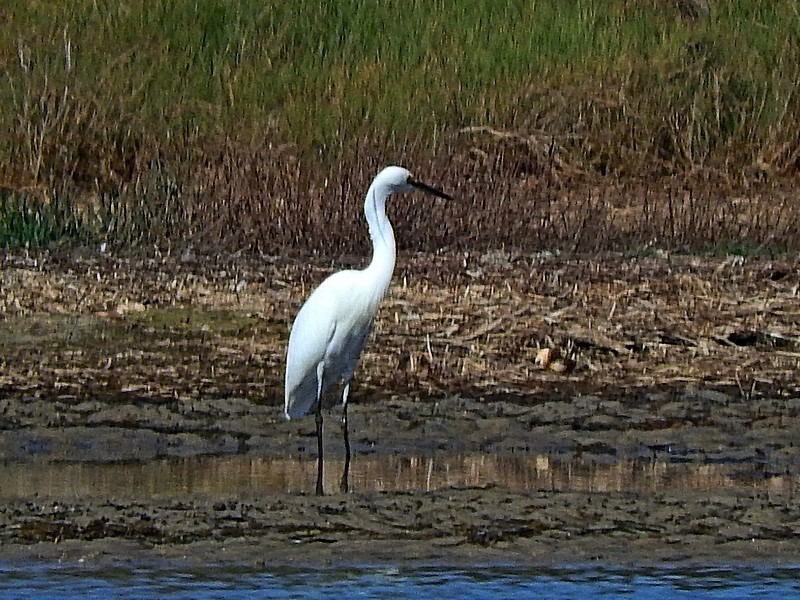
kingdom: Animalia
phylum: Chordata
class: Aves
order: Pelecaniformes
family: Ardeidae
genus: Egretta
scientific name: Egretta garzetta
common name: Little egret
